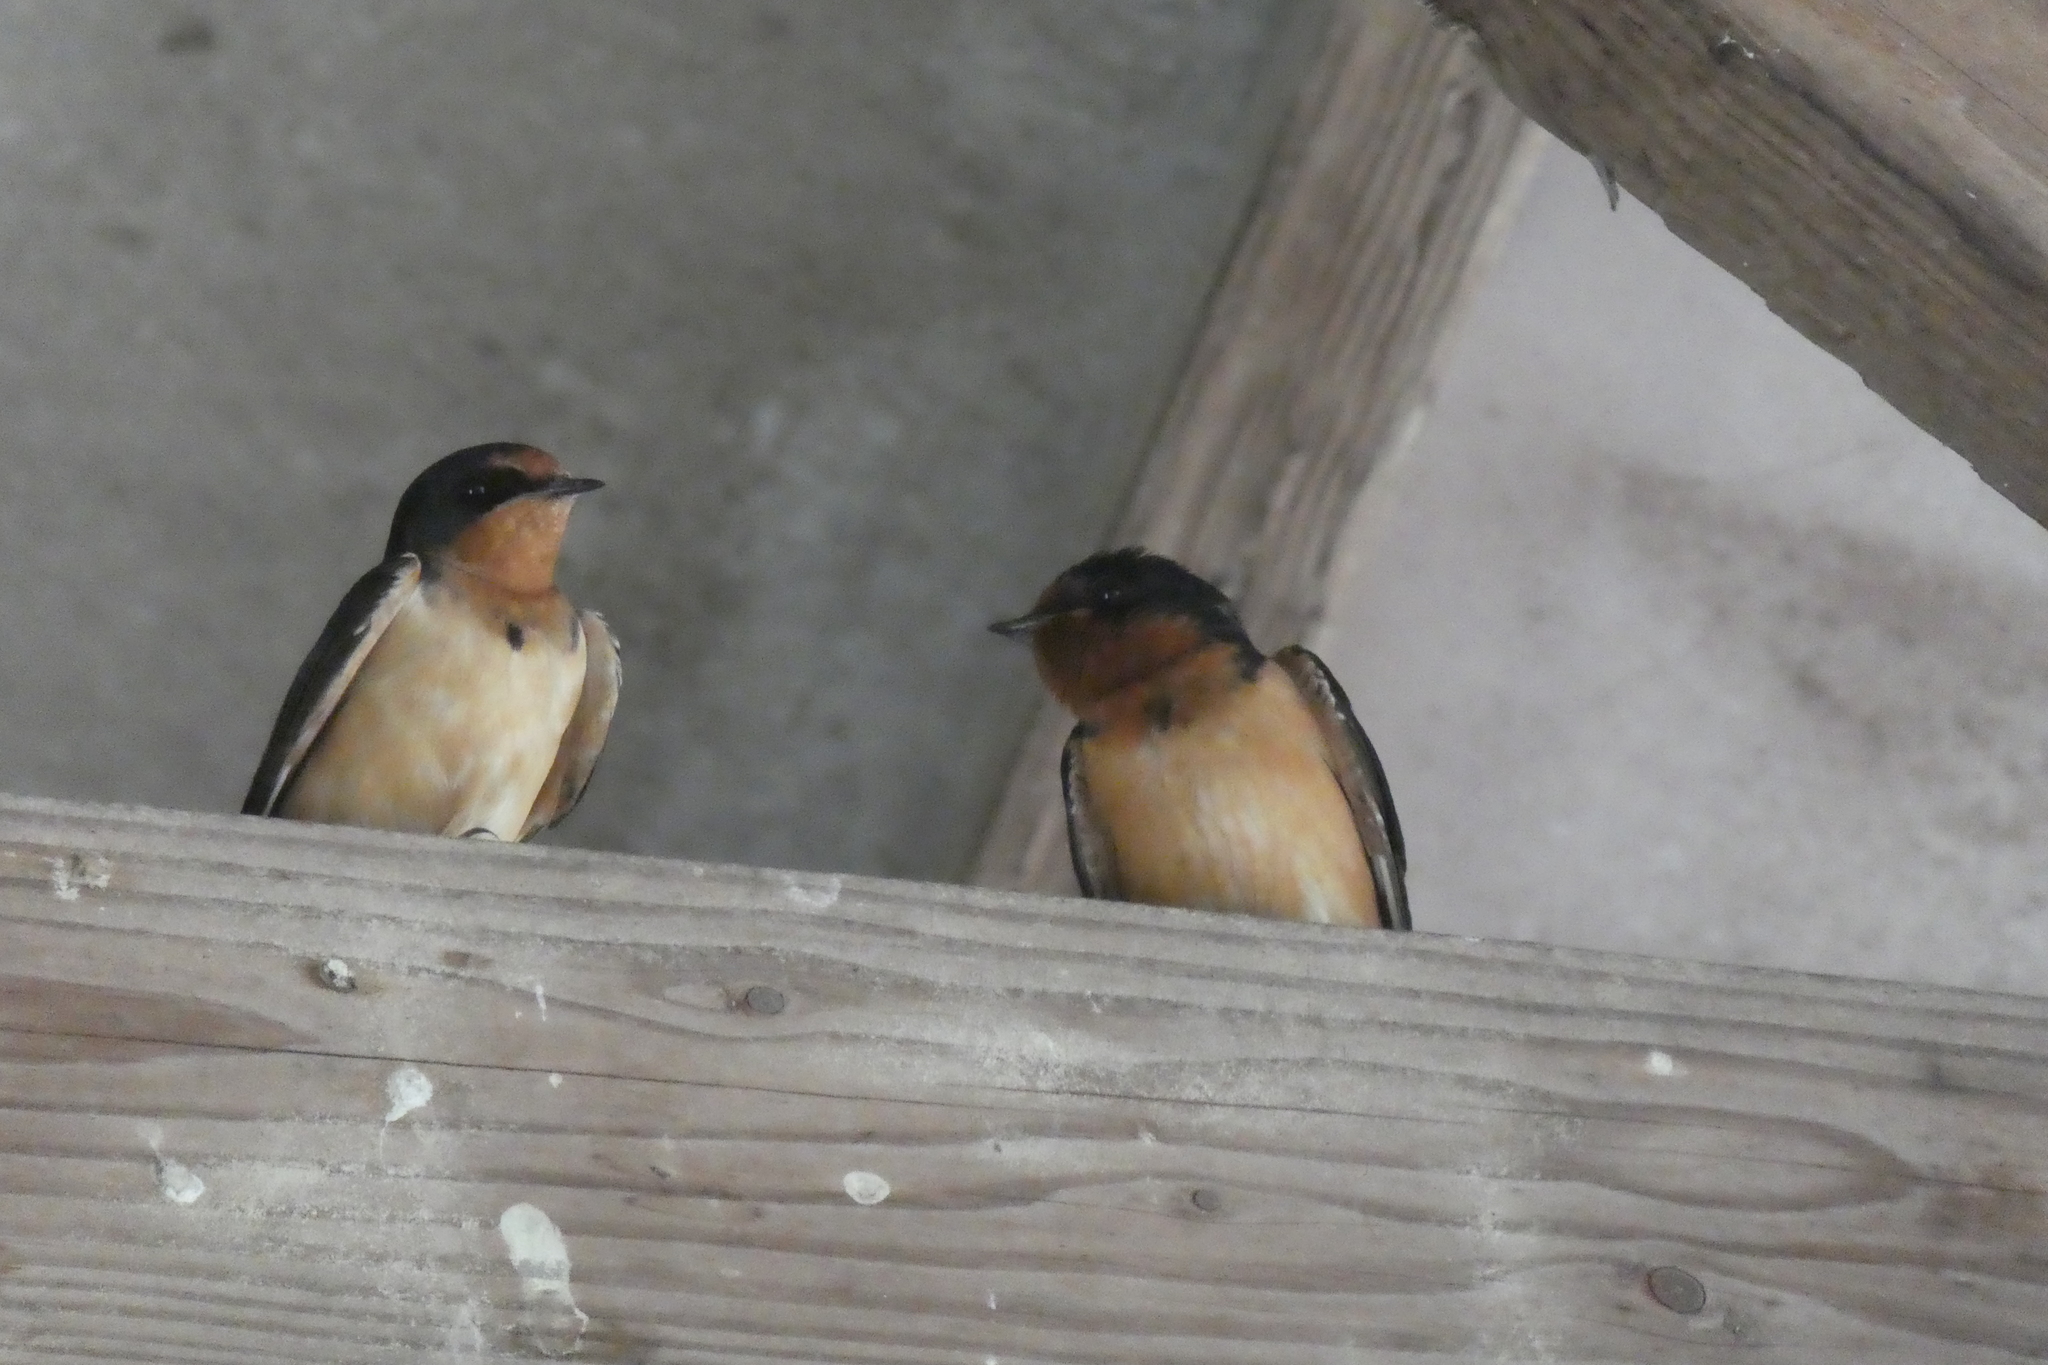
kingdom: Animalia
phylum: Chordata
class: Aves
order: Passeriformes
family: Hirundinidae
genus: Hirundo
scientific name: Hirundo rustica
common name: Barn swallow
